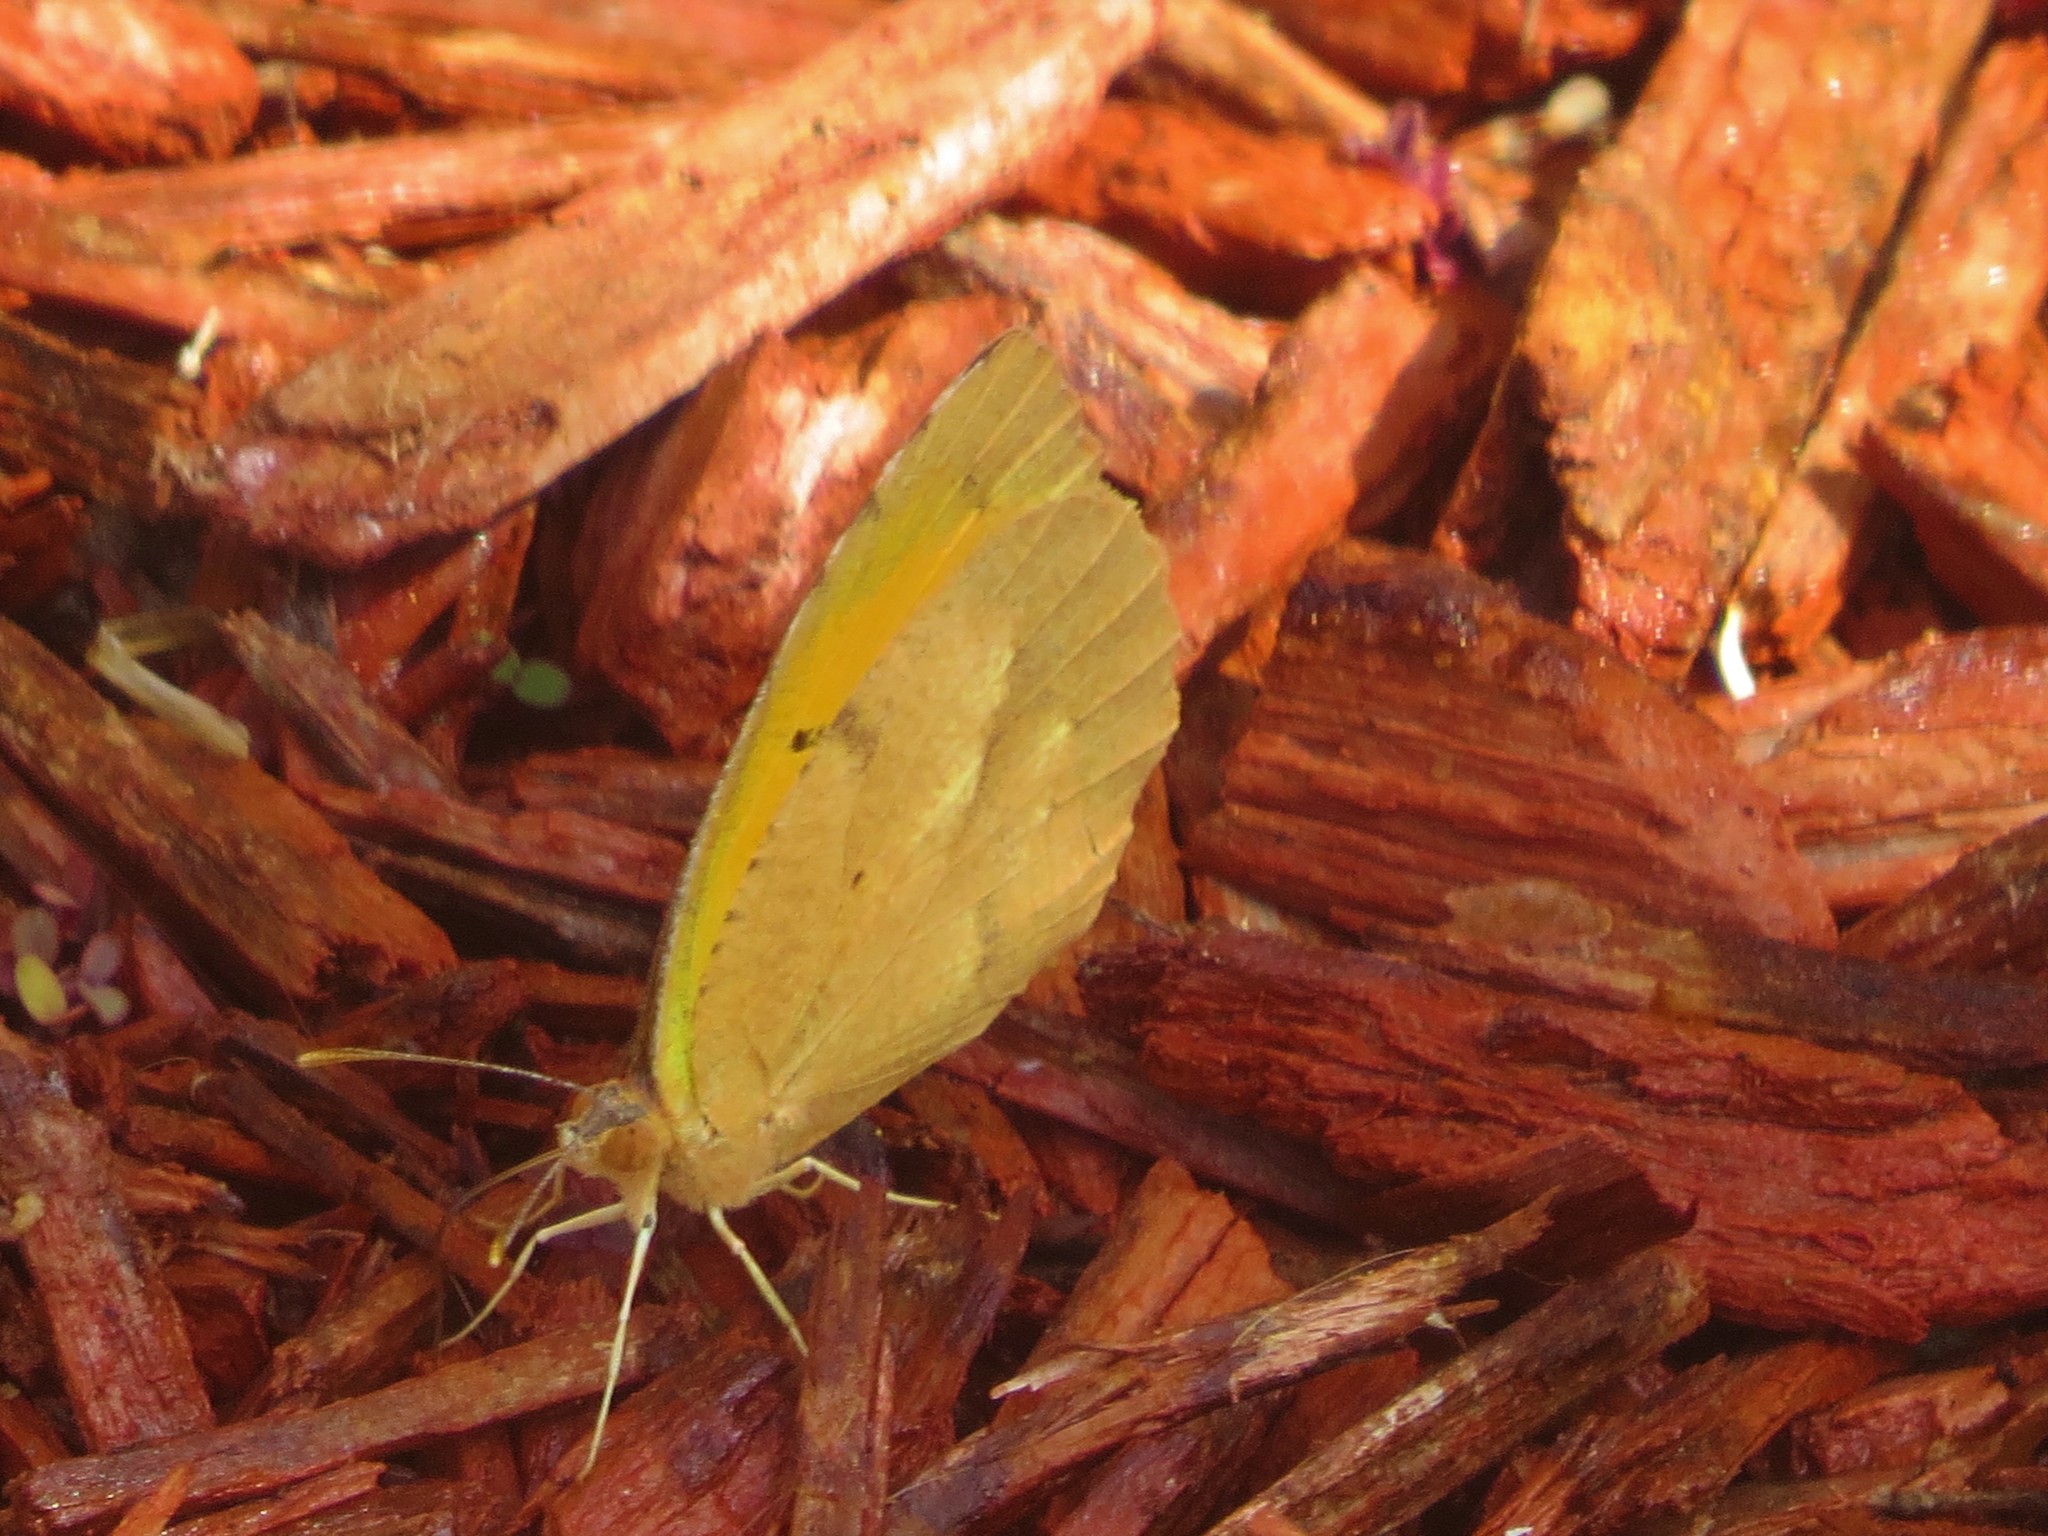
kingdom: Animalia
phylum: Arthropoda
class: Insecta
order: Lepidoptera
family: Pieridae
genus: Abaeis
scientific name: Abaeis nicippe
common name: Sleepy orange
